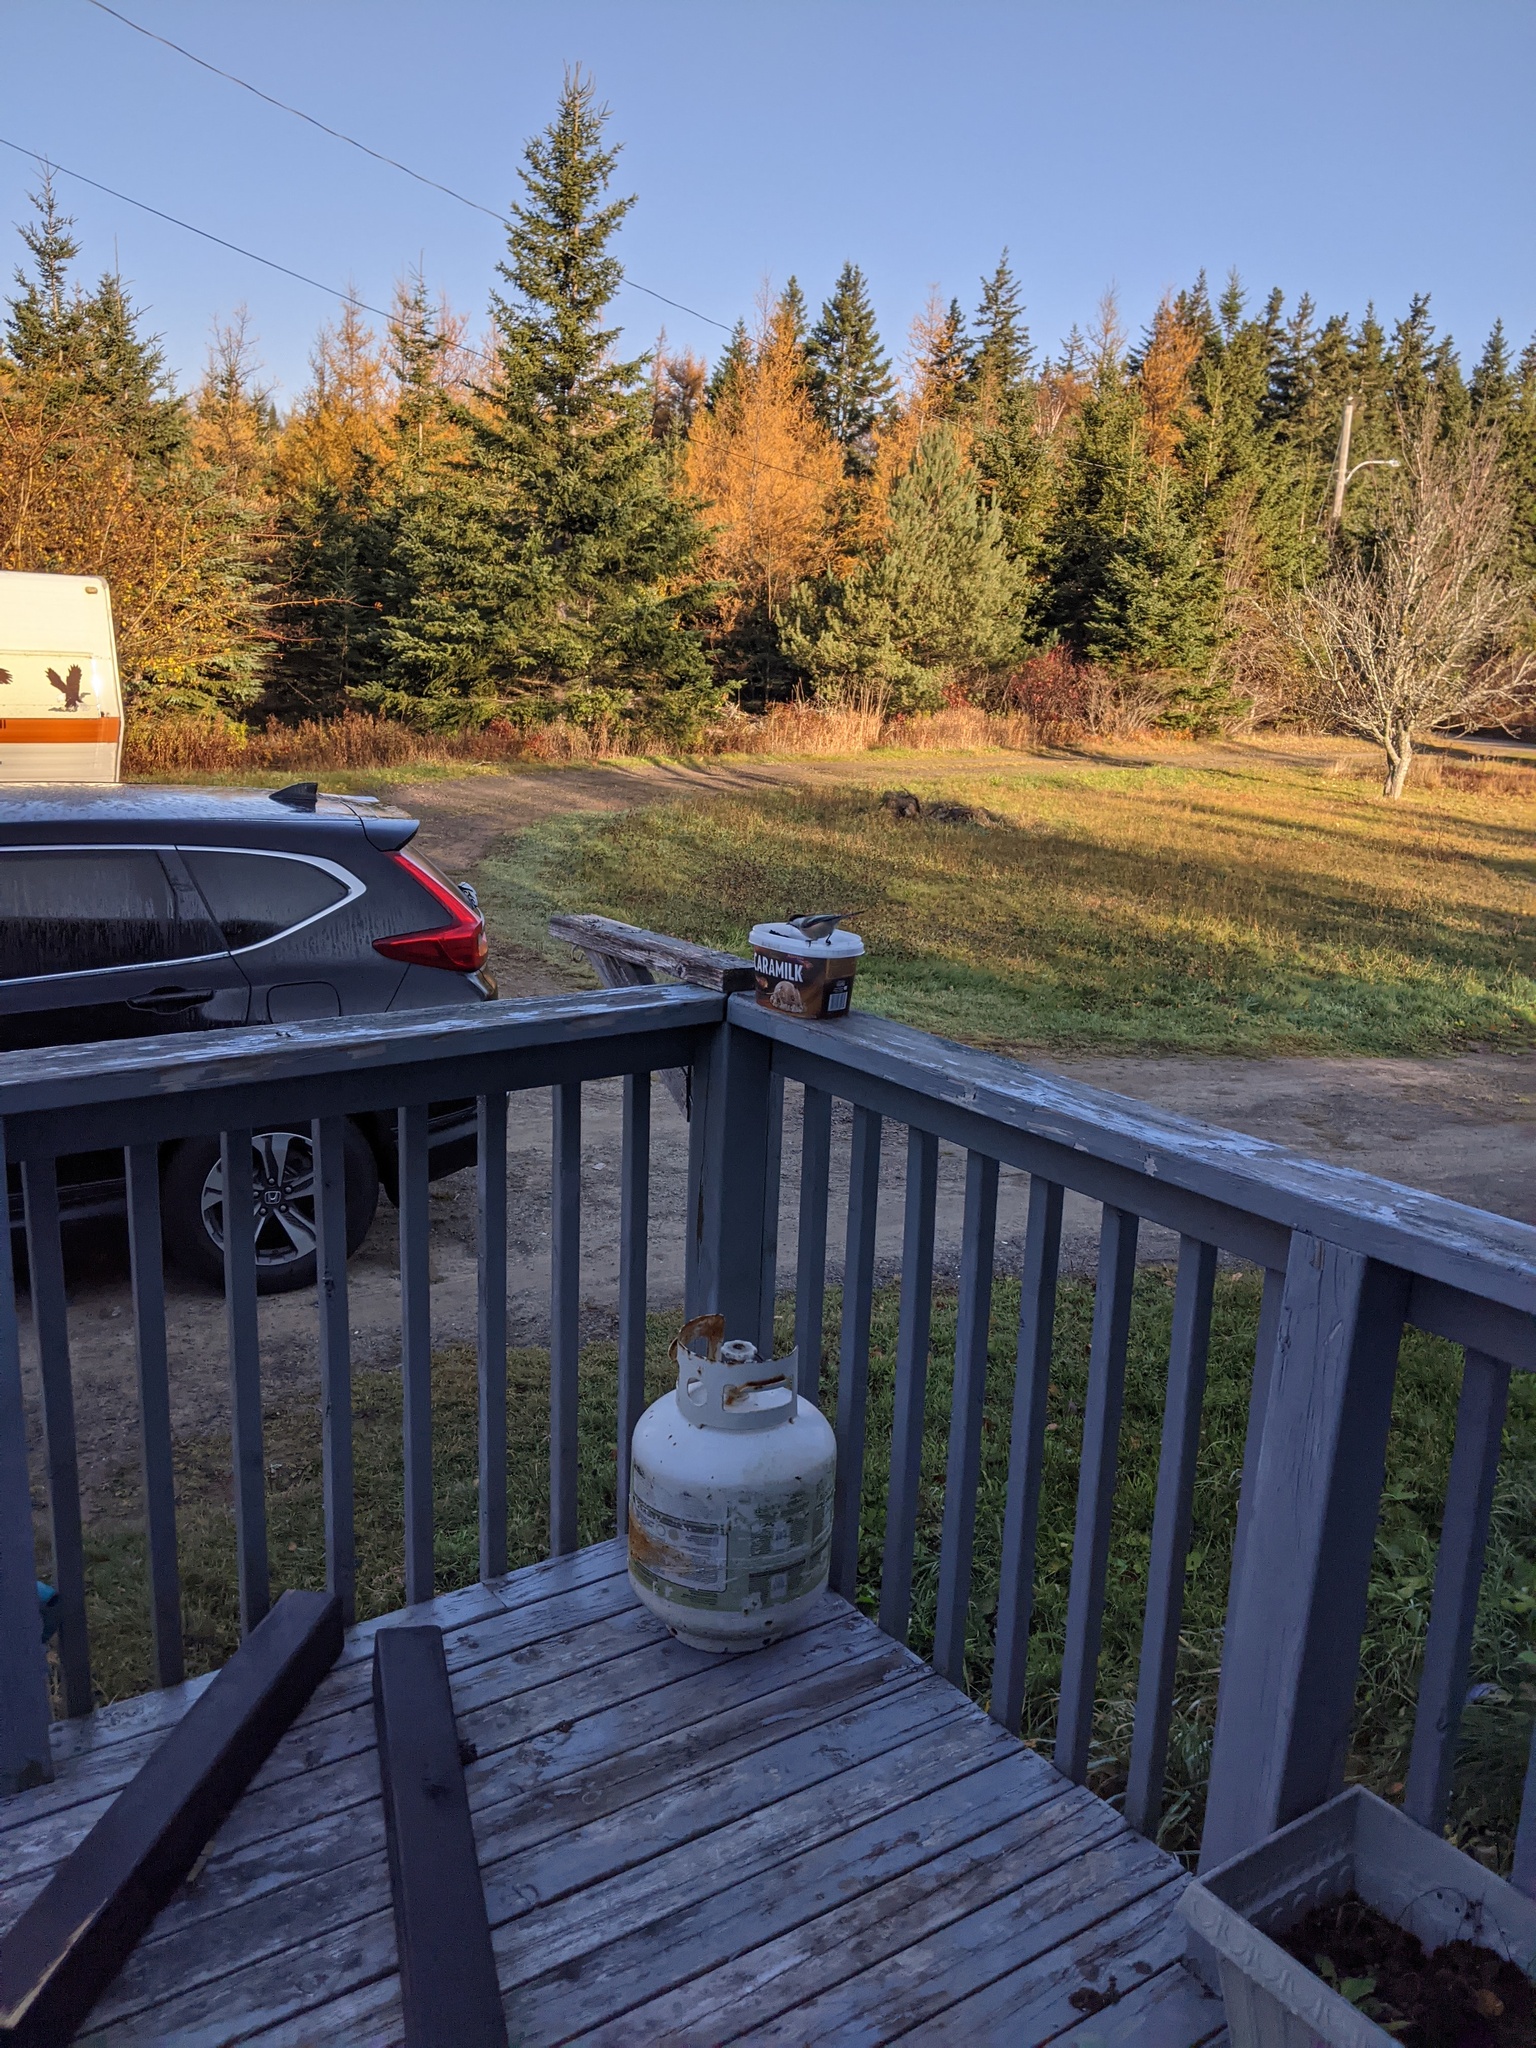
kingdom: Animalia
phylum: Chordata
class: Aves
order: Passeriformes
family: Paridae
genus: Poecile
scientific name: Poecile atricapillus
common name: Black-capped chickadee
